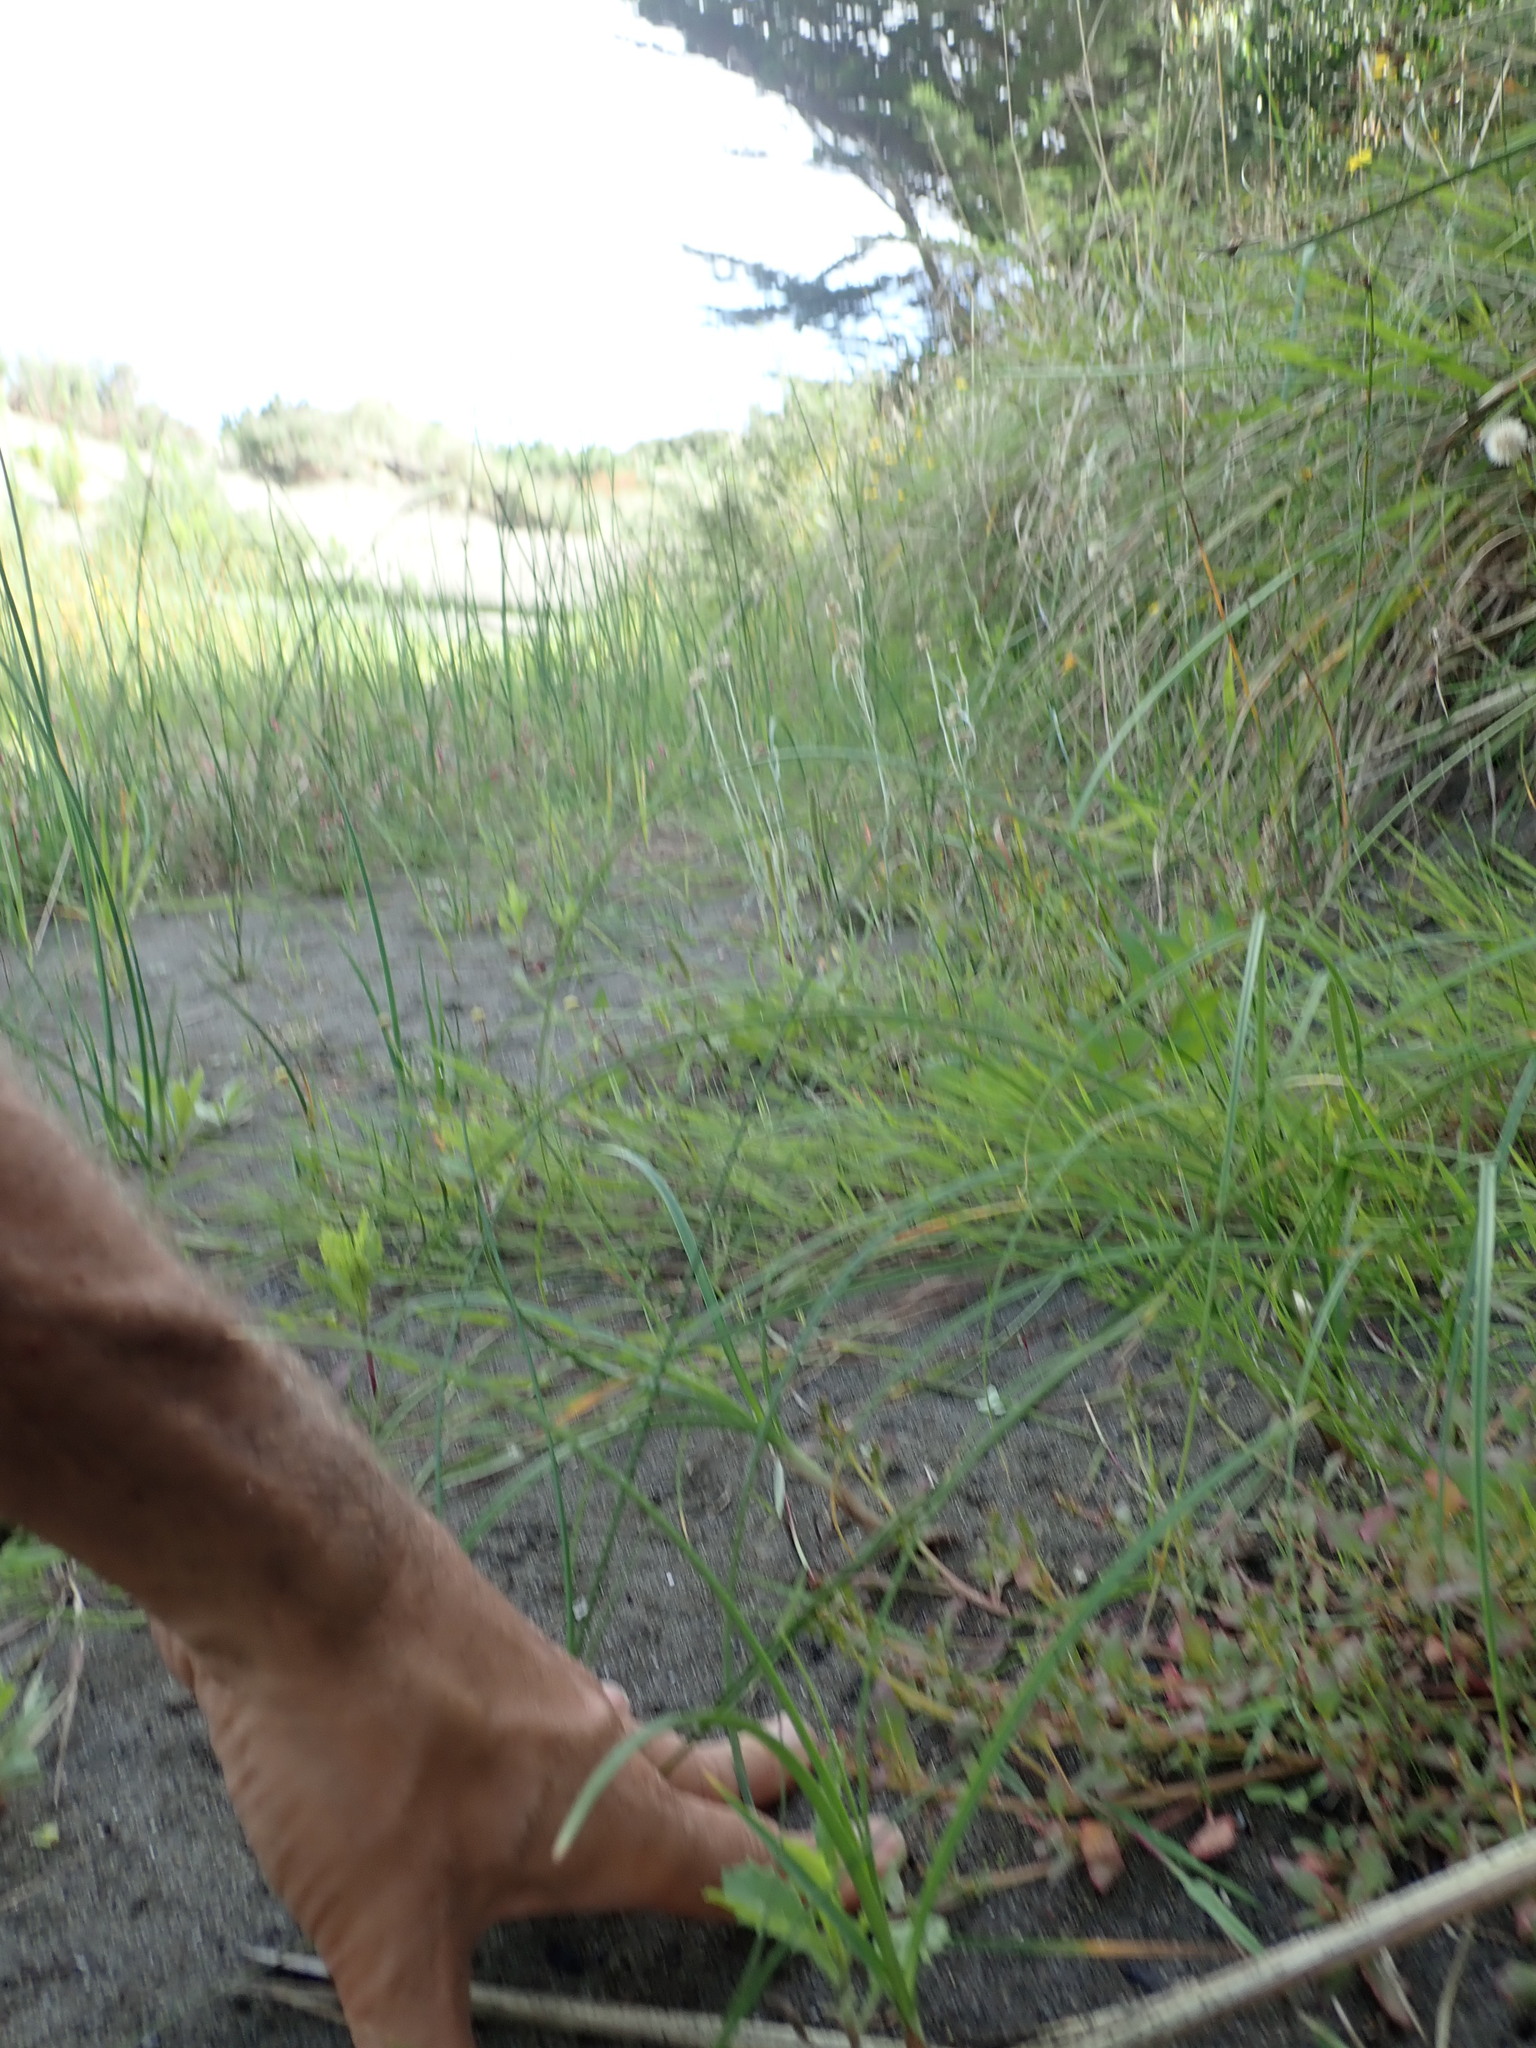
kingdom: Plantae
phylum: Tracheophyta
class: Magnoliopsida
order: Caryophyllales
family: Amaranthaceae
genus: Oxybasis
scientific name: Oxybasis ambigua
